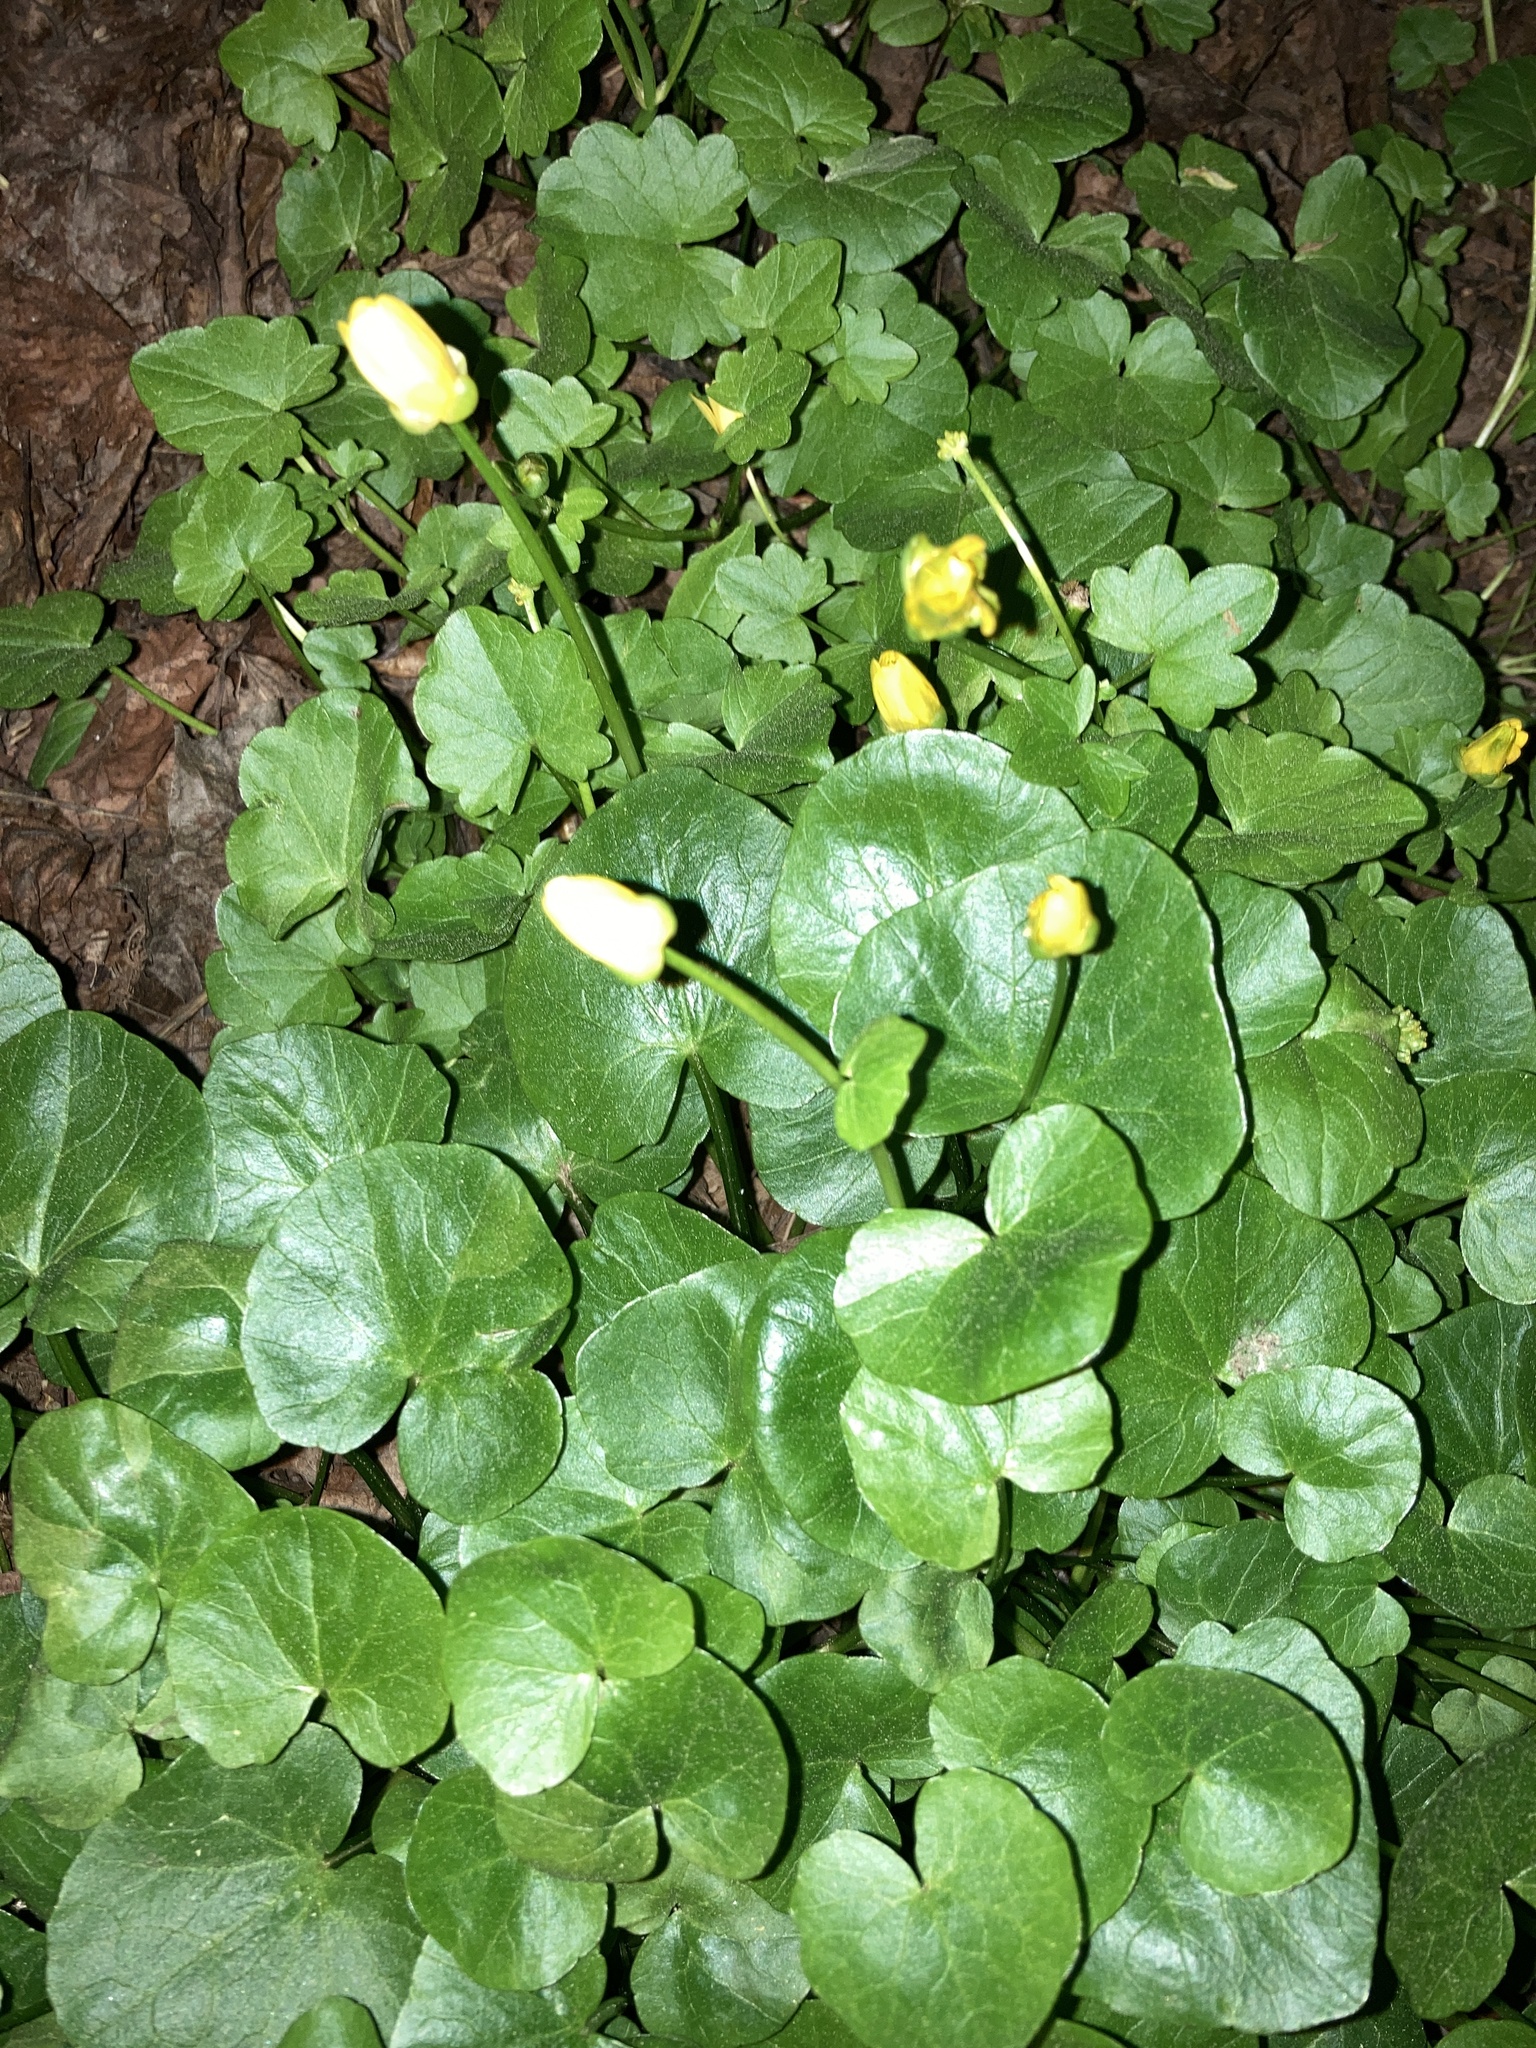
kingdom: Plantae
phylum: Tracheophyta
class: Magnoliopsida
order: Ranunculales
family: Ranunculaceae
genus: Ficaria
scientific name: Ficaria verna
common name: Lesser celandine
